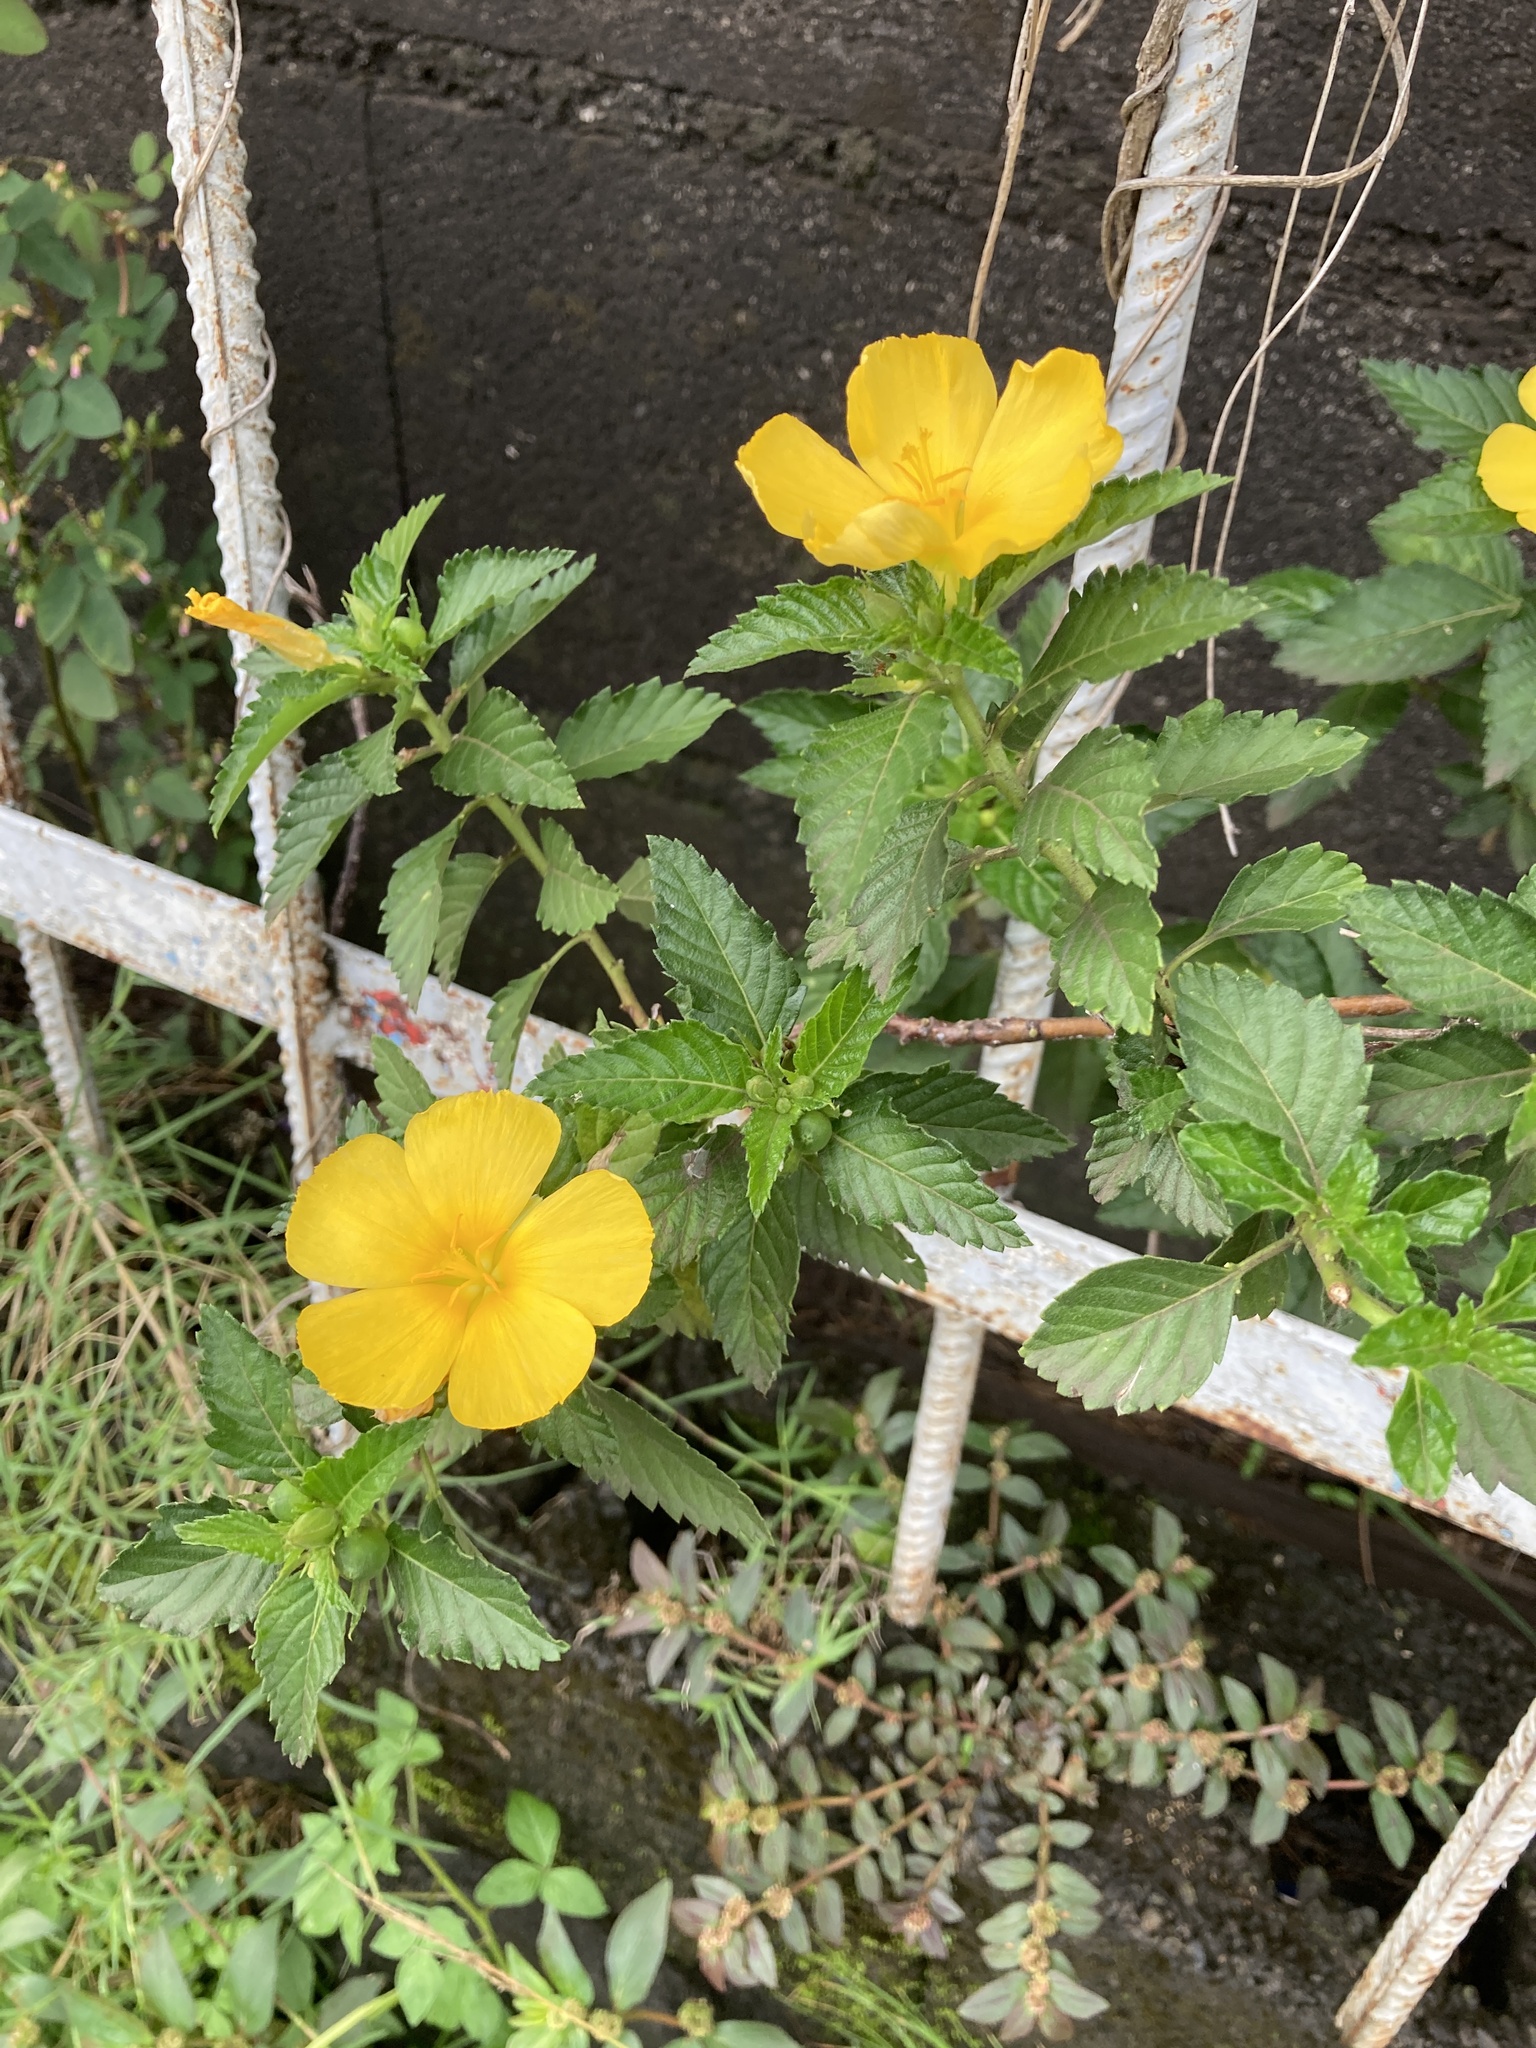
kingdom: Plantae
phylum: Tracheophyta
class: Magnoliopsida
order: Malpighiales
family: Turneraceae
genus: Turnera
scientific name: Turnera ulmifolia
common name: Ramgoat dashalong
